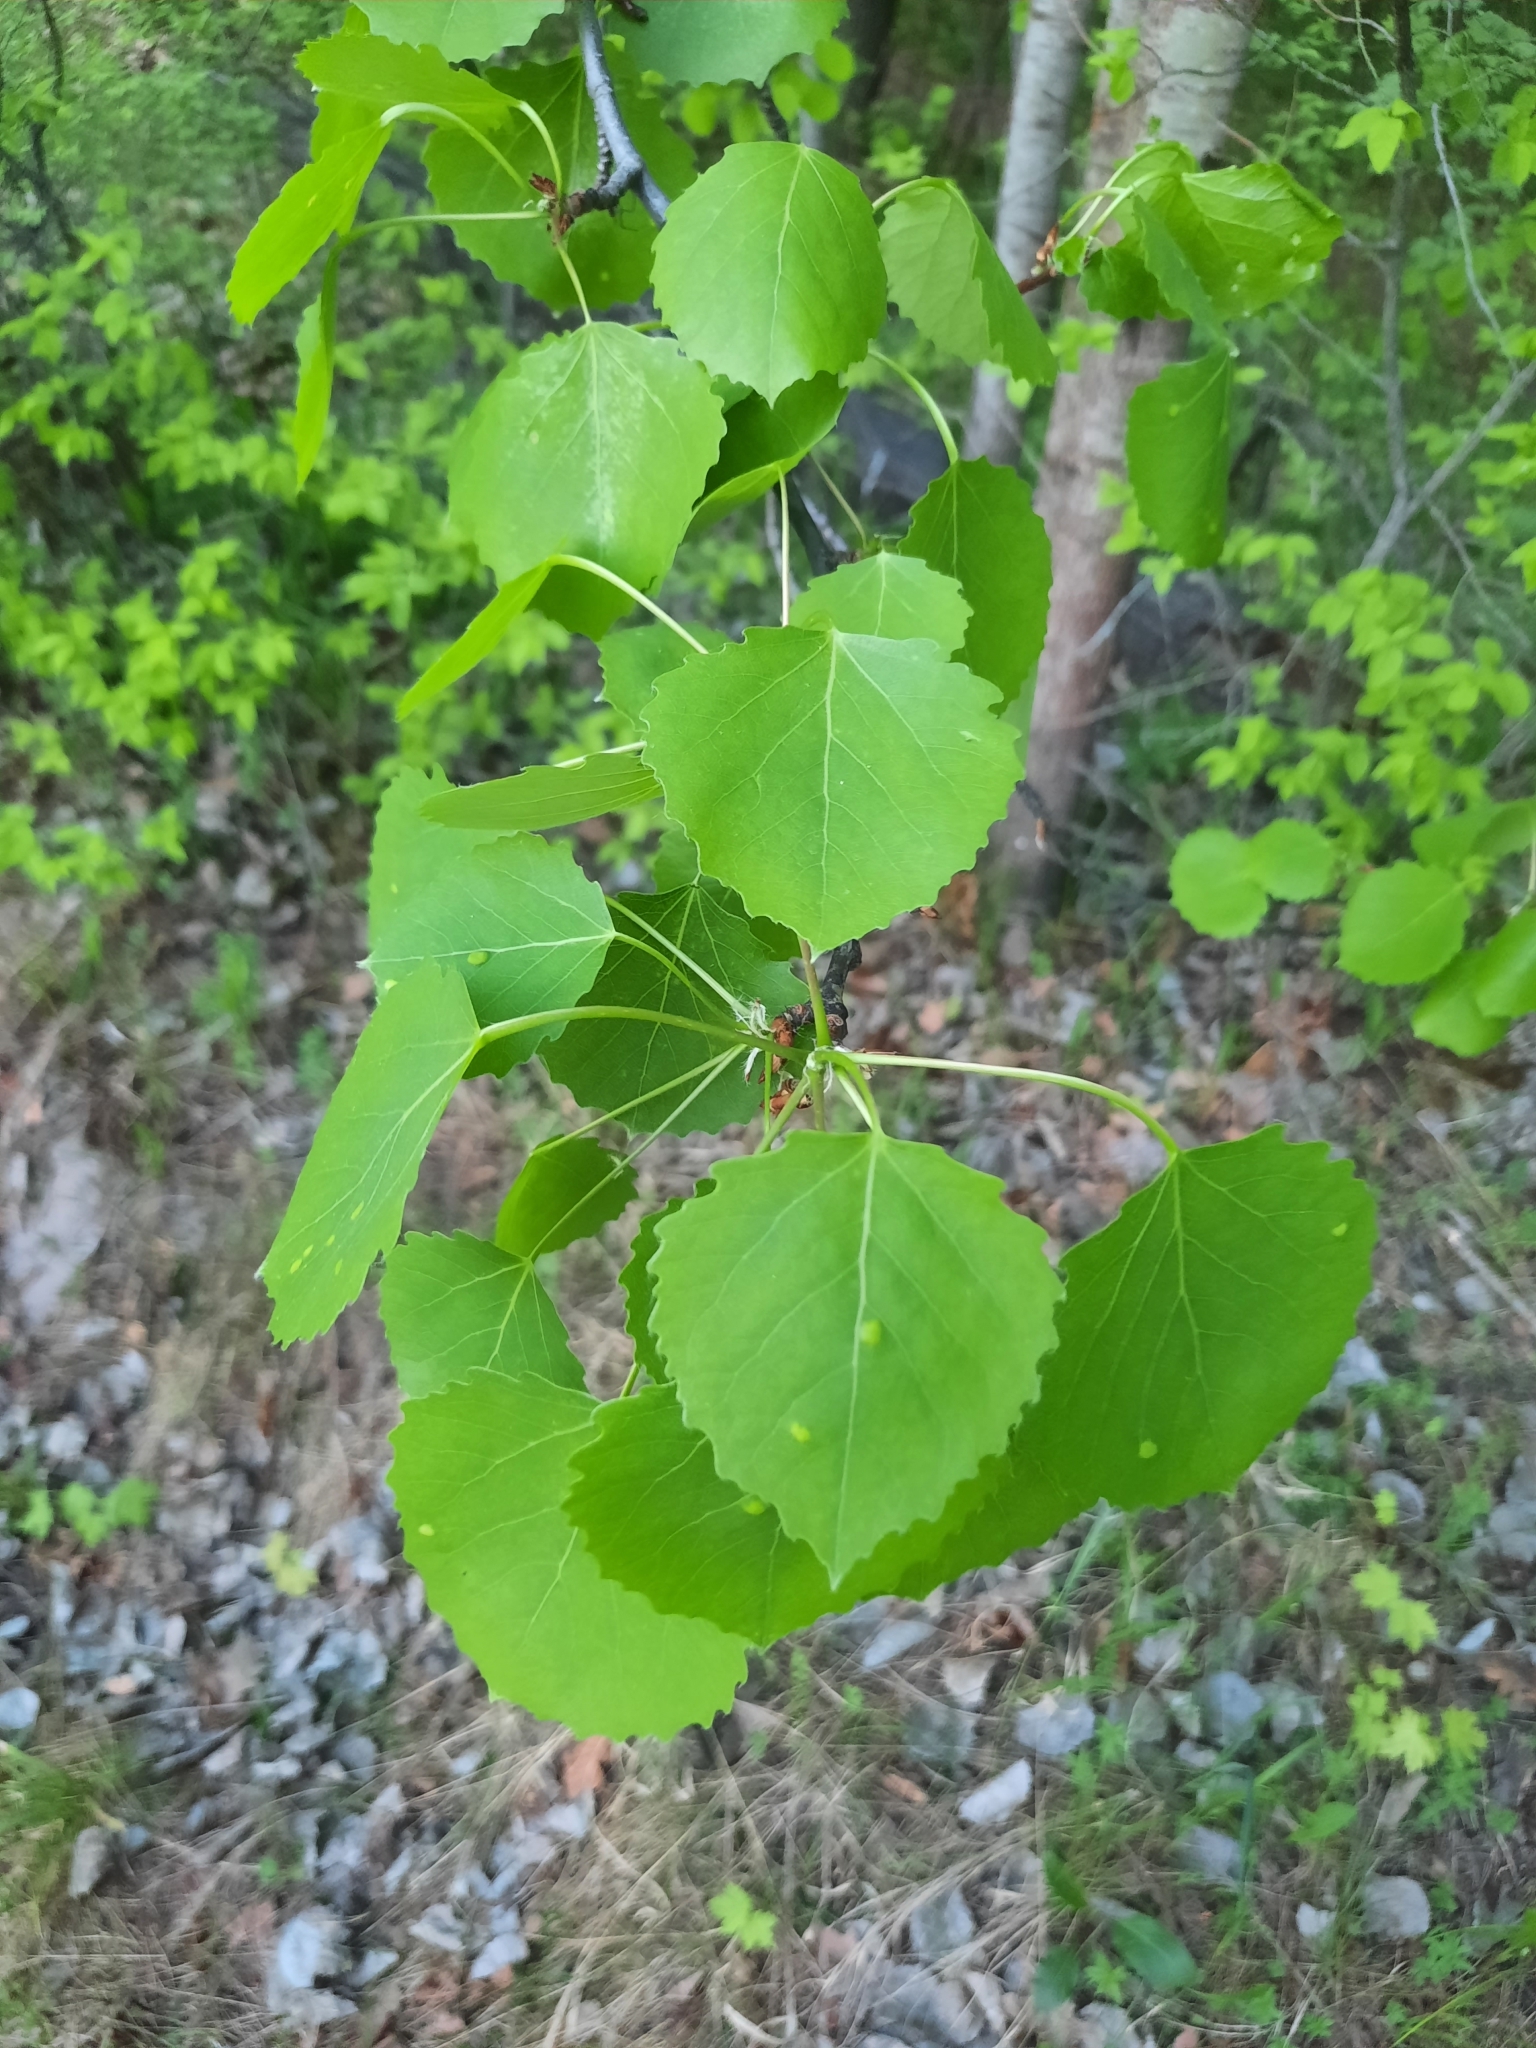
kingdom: Plantae
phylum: Tracheophyta
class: Magnoliopsida
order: Malpighiales
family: Salicaceae
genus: Populus
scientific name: Populus tremula
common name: European aspen
